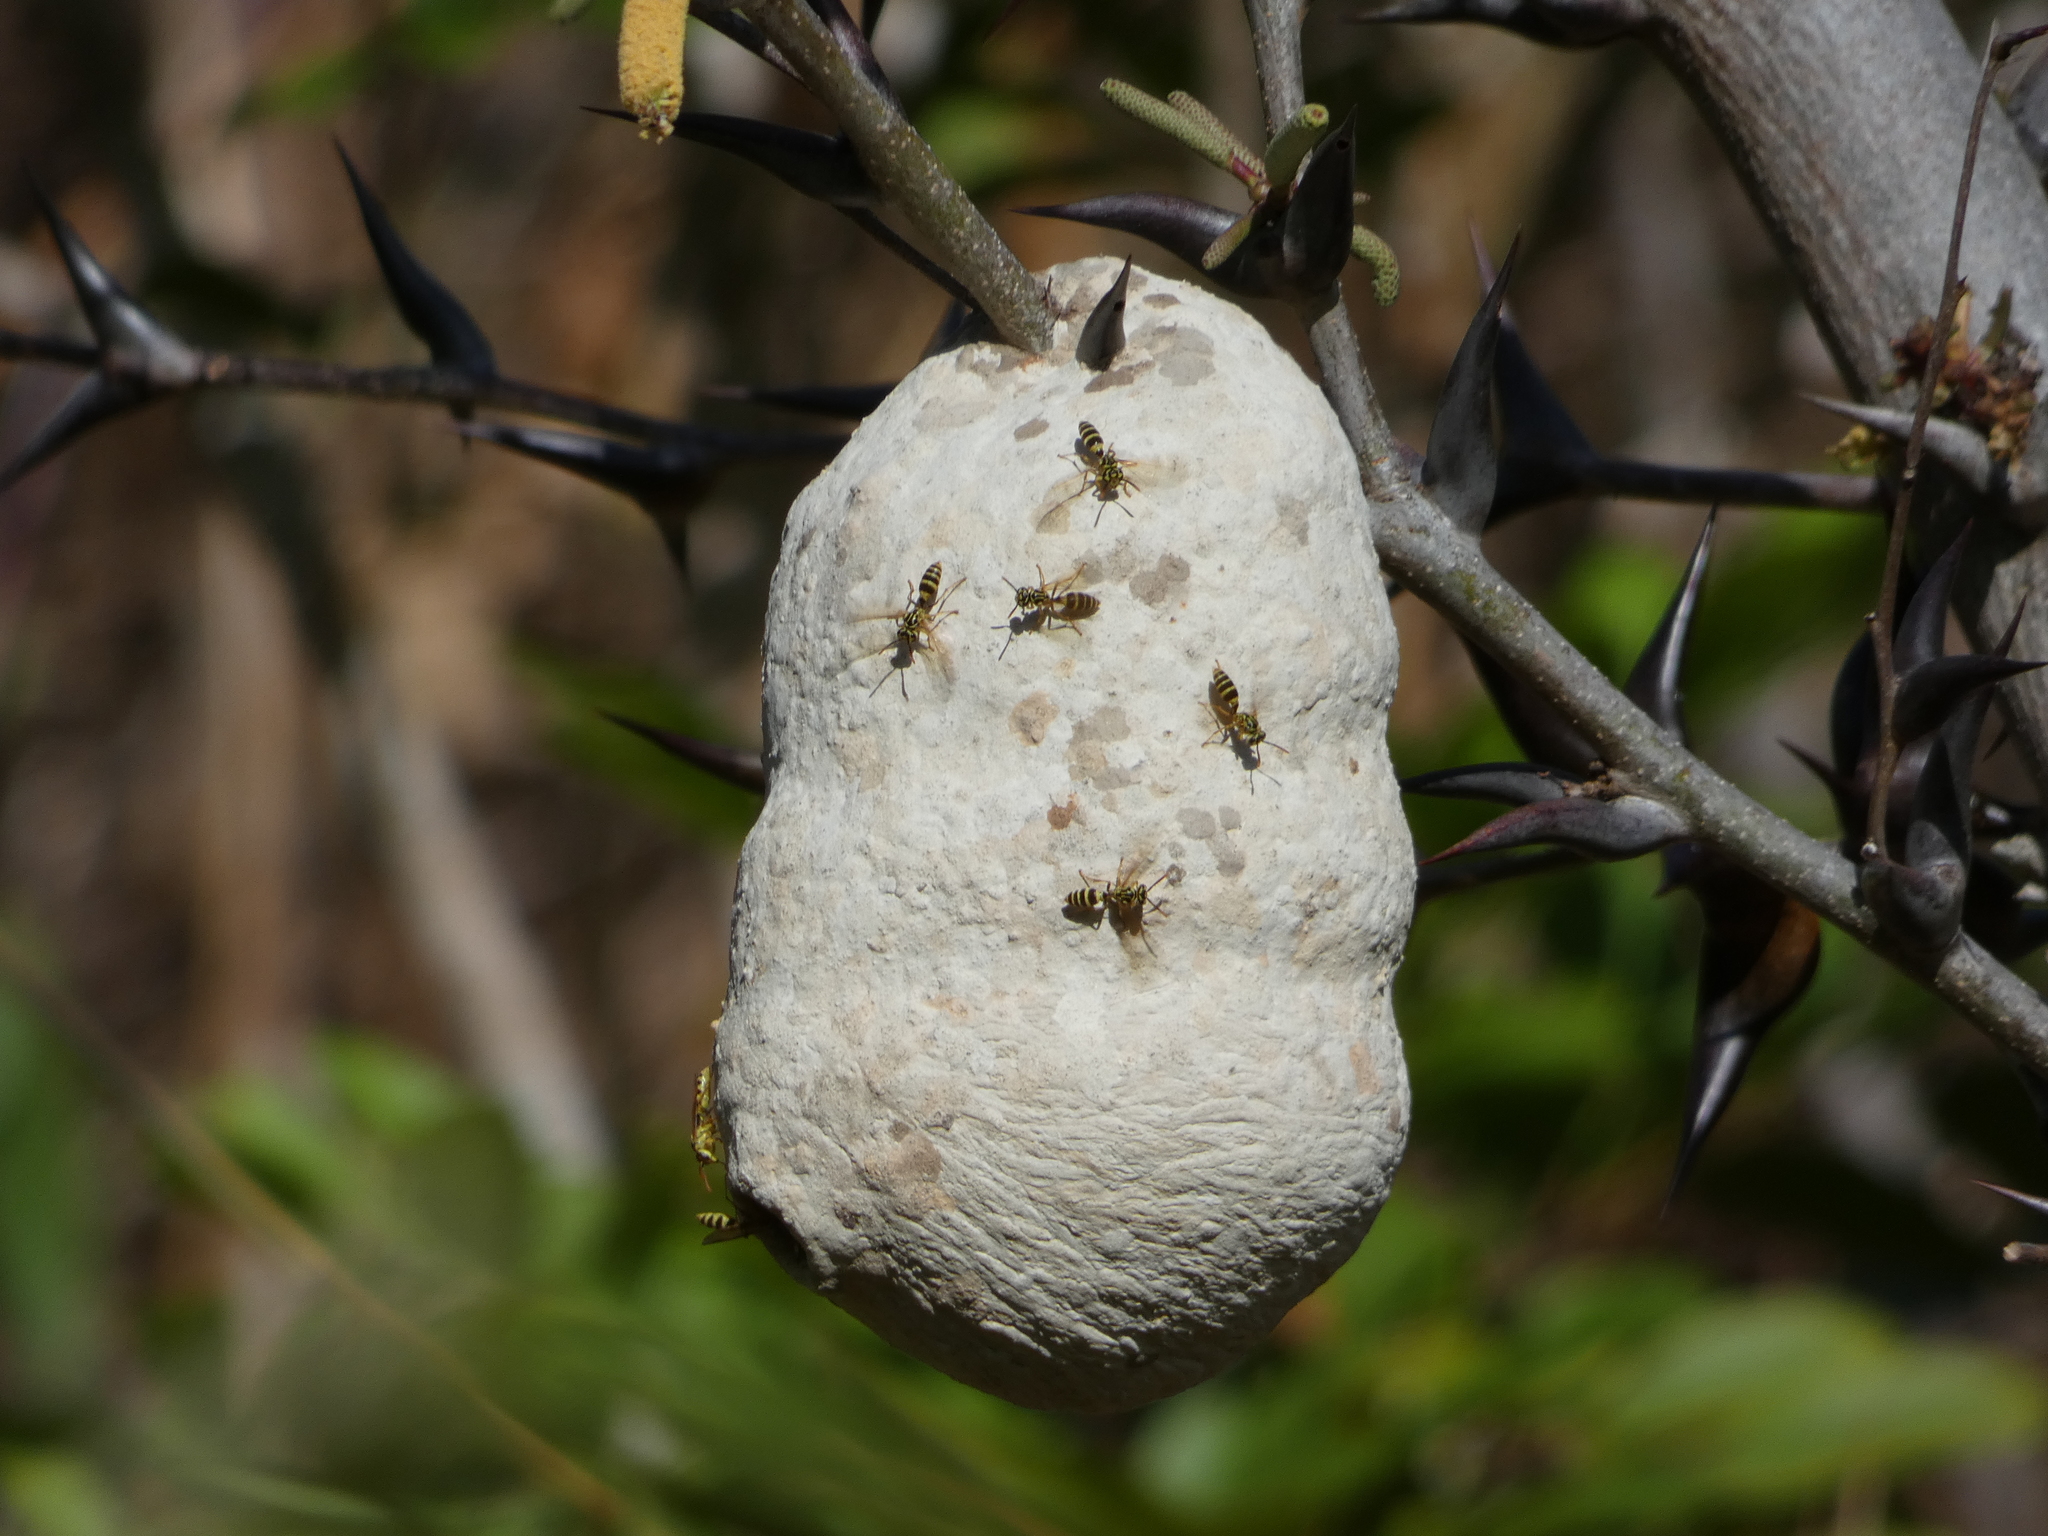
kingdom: Animalia
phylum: Arthropoda
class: Insecta
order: Hymenoptera
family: Eumenidae
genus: Polybia
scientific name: Polybia emaciata
